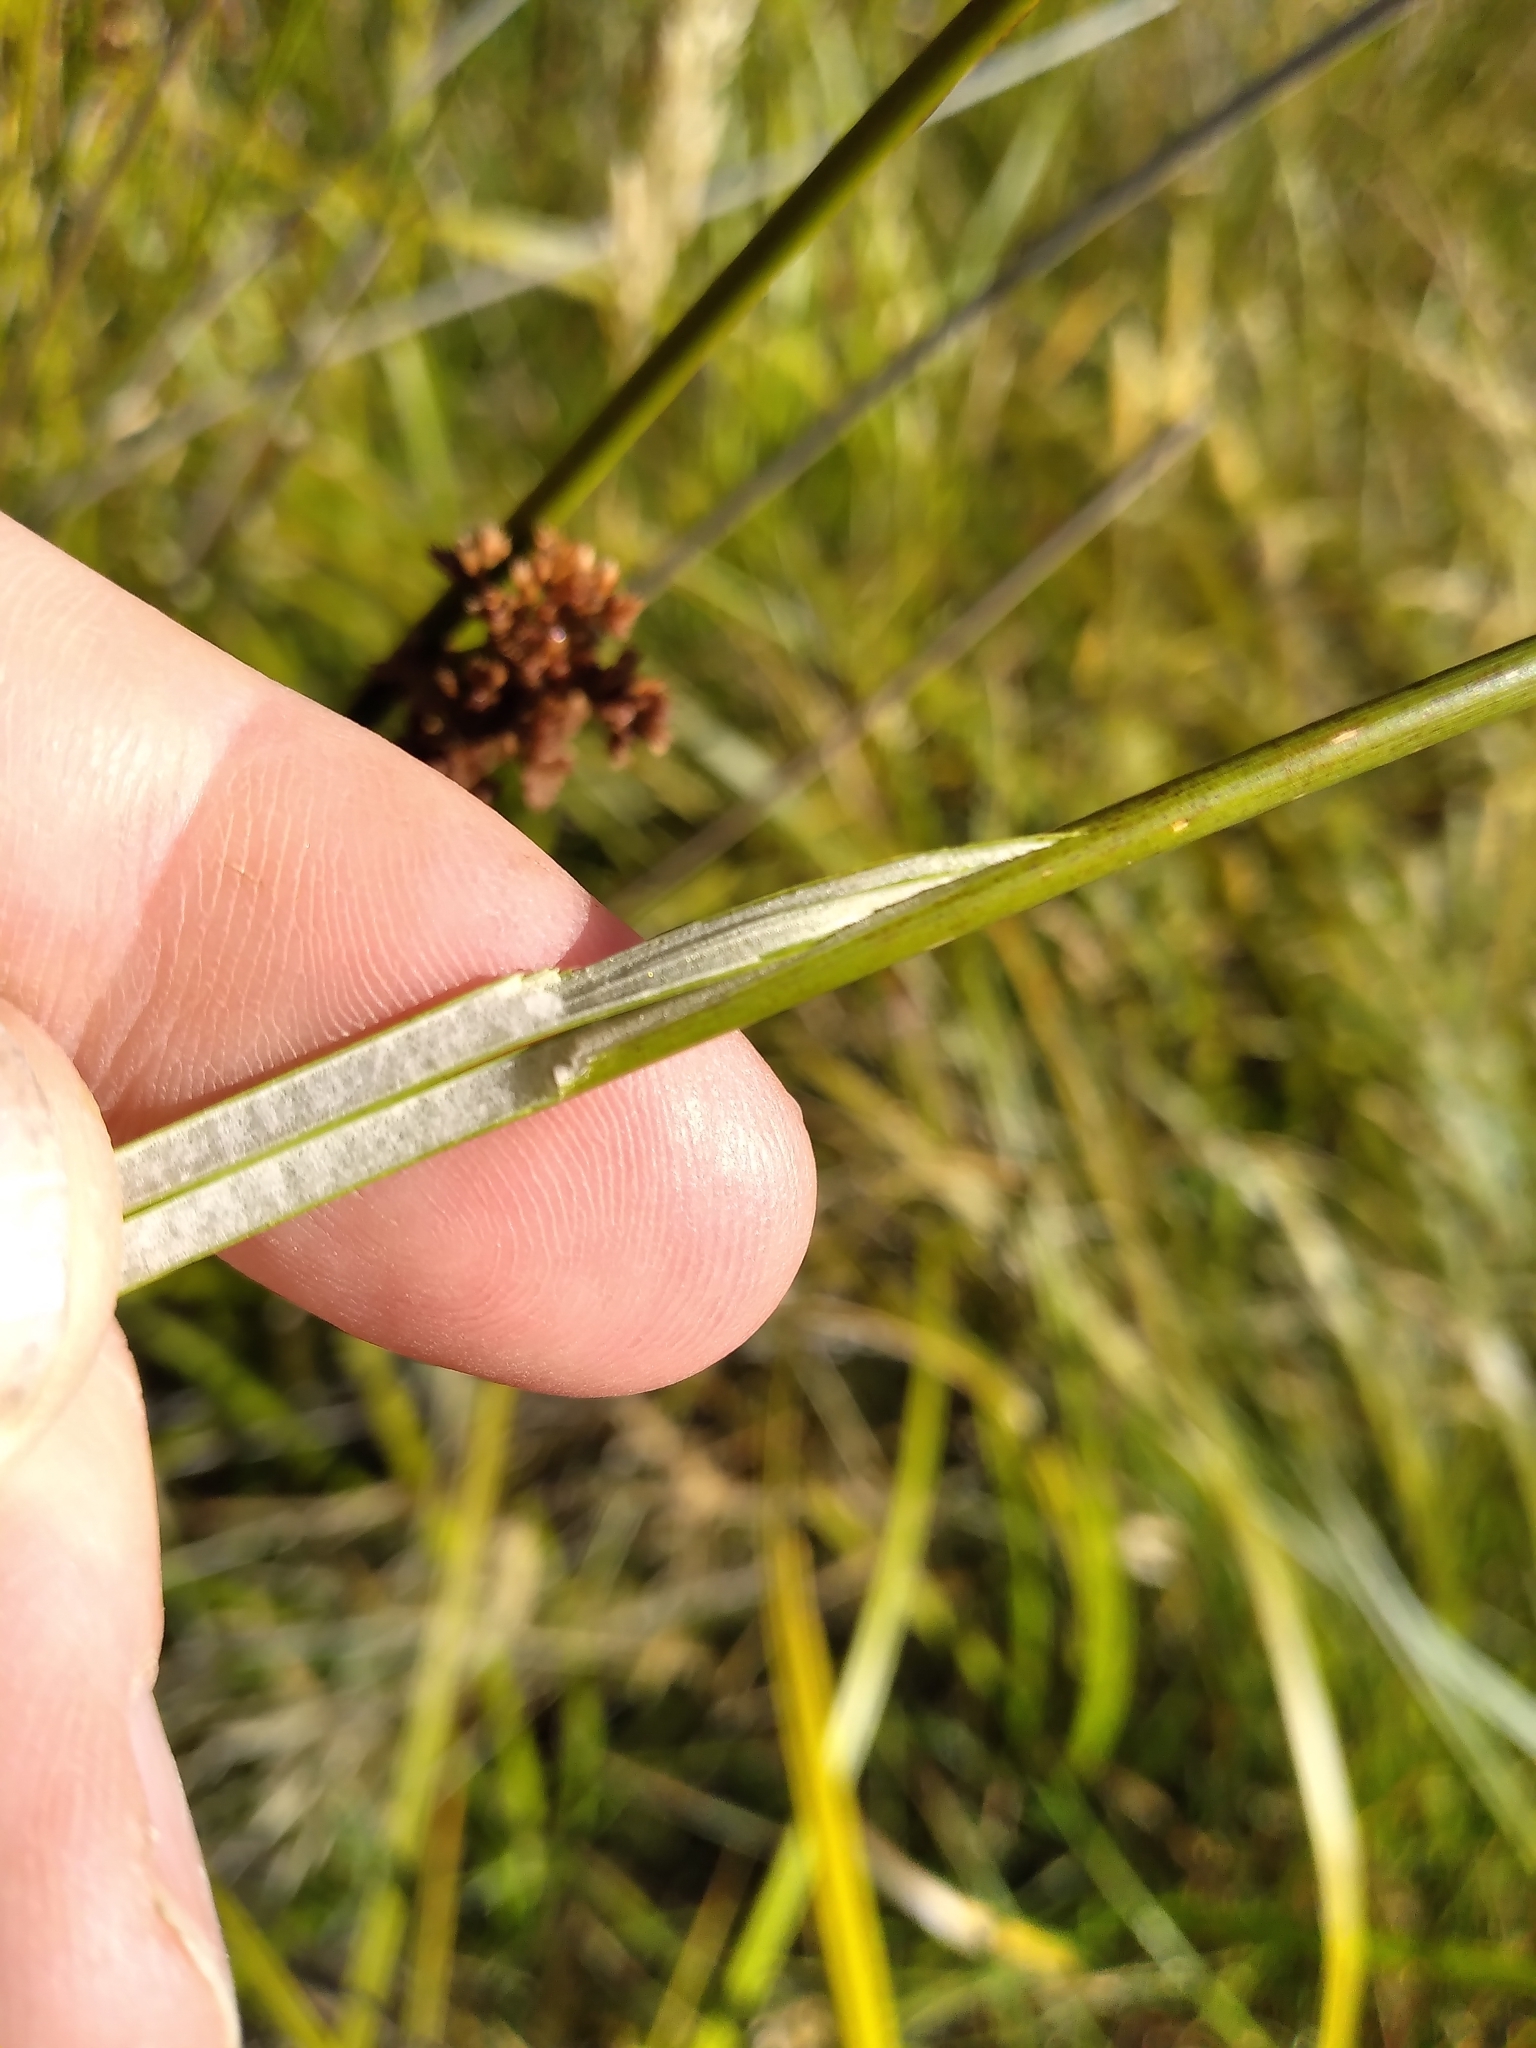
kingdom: Plantae
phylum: Tracheophyta
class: Liliopsida
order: Poales
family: Juncaceae
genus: Juncus
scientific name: Juncus effusus
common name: Soft rush
